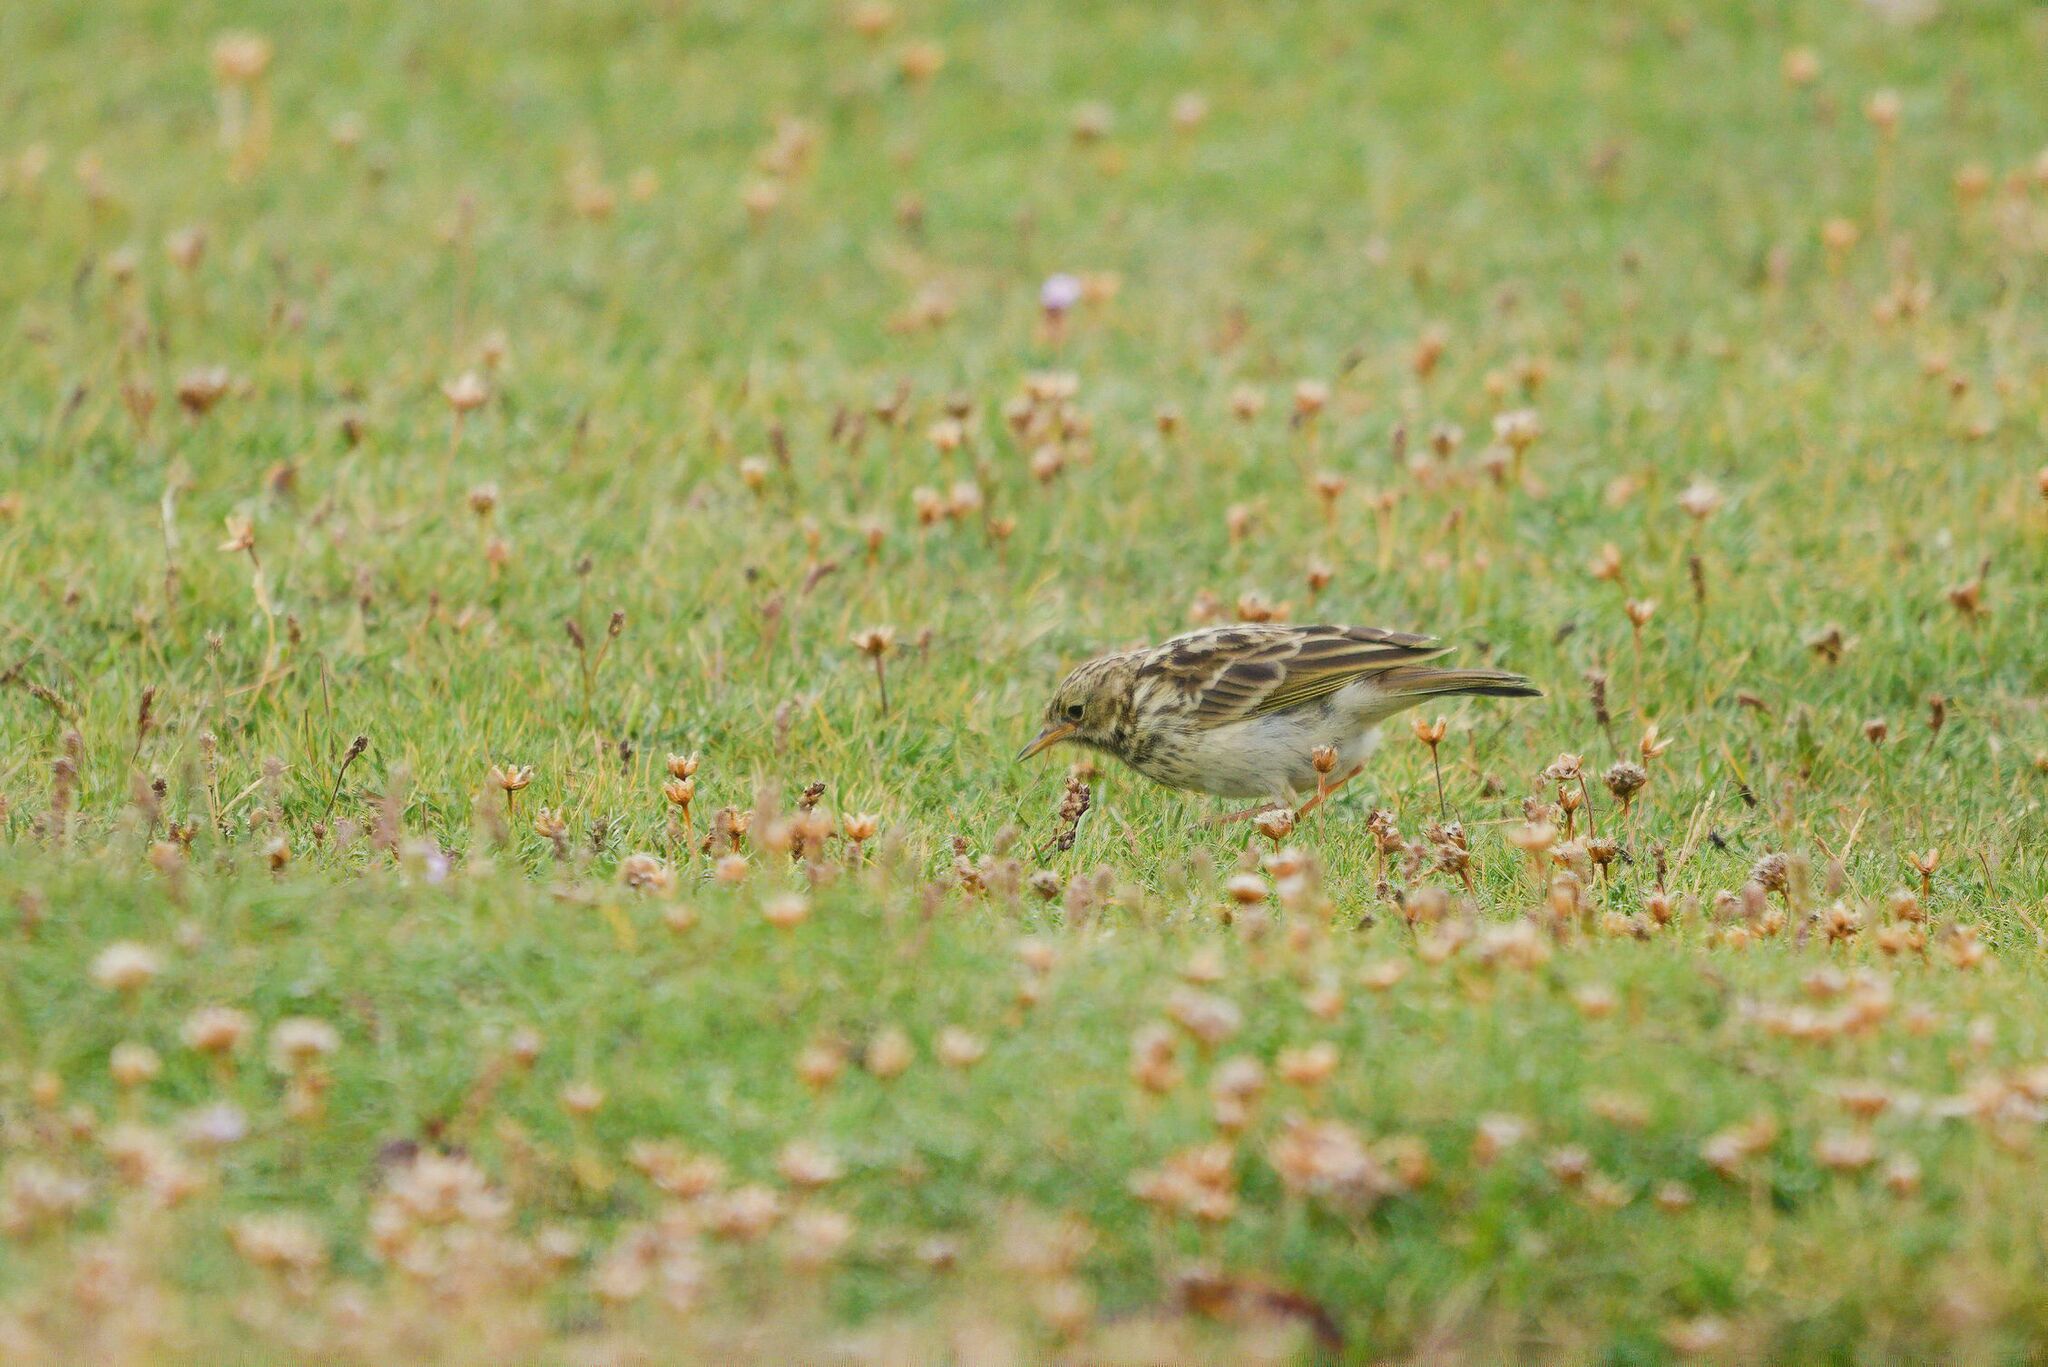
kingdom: Animalia
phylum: Chordata
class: Aves
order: Passeriformes
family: Motacillidae
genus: Anthus
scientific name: Anthus pratensis
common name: Meadow pipit
